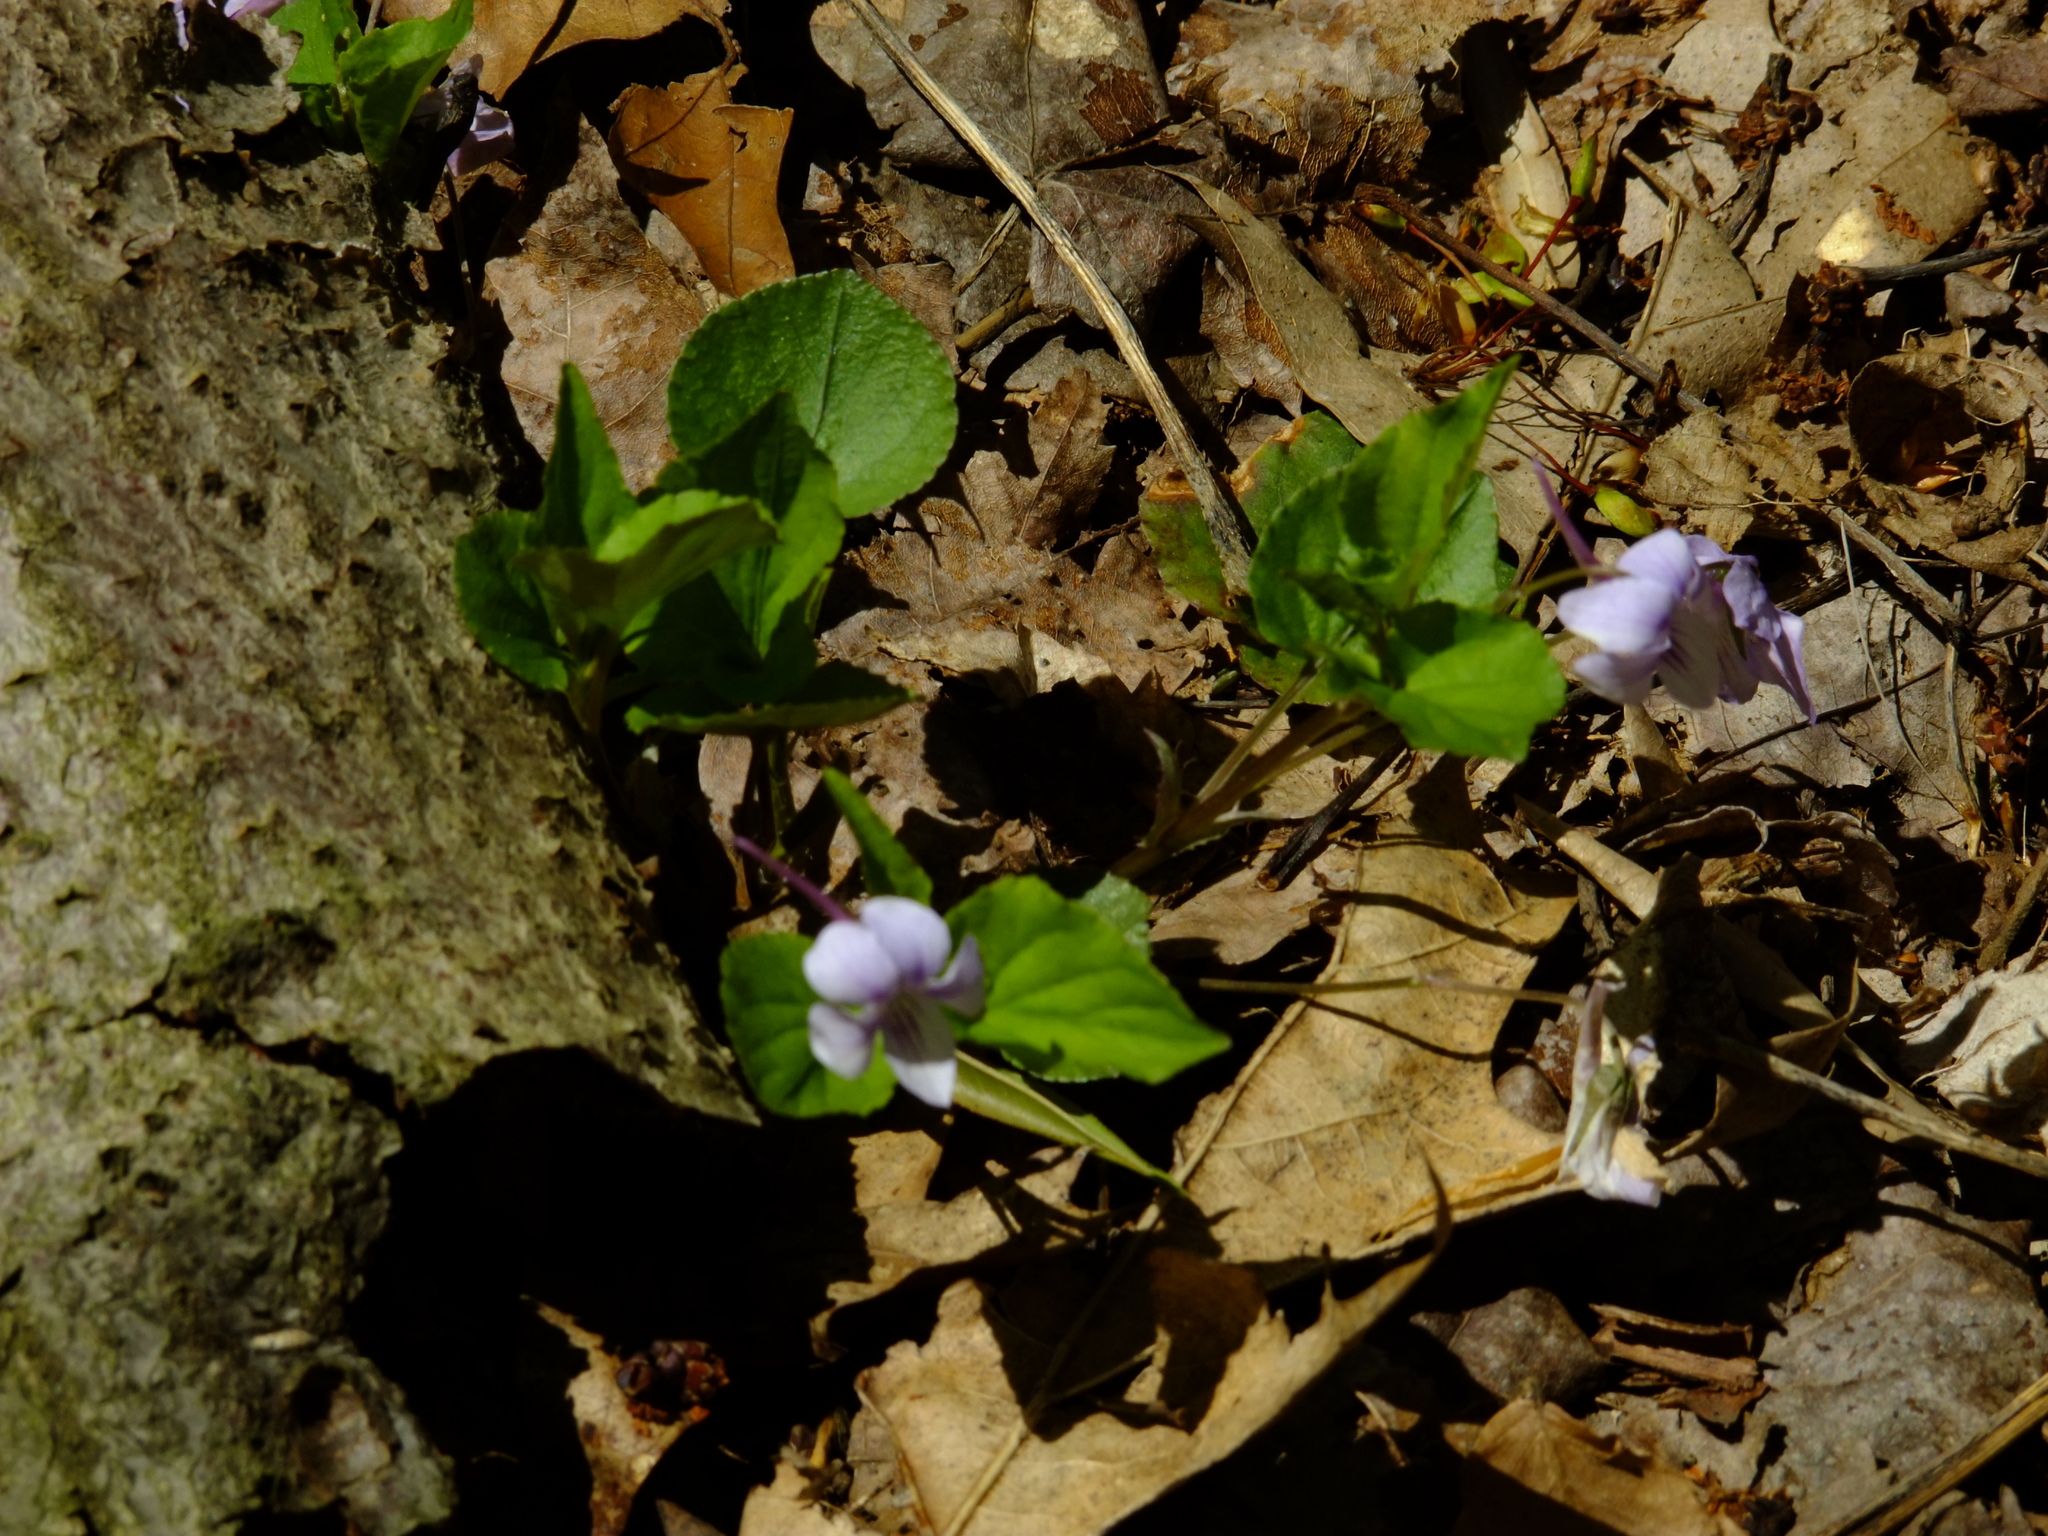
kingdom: Plantae
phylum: Tracheophyta
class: Magnoliopsida
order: Malpighiales
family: Violaceae
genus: Viola
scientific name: Viola rostrata
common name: Long-spur violet
